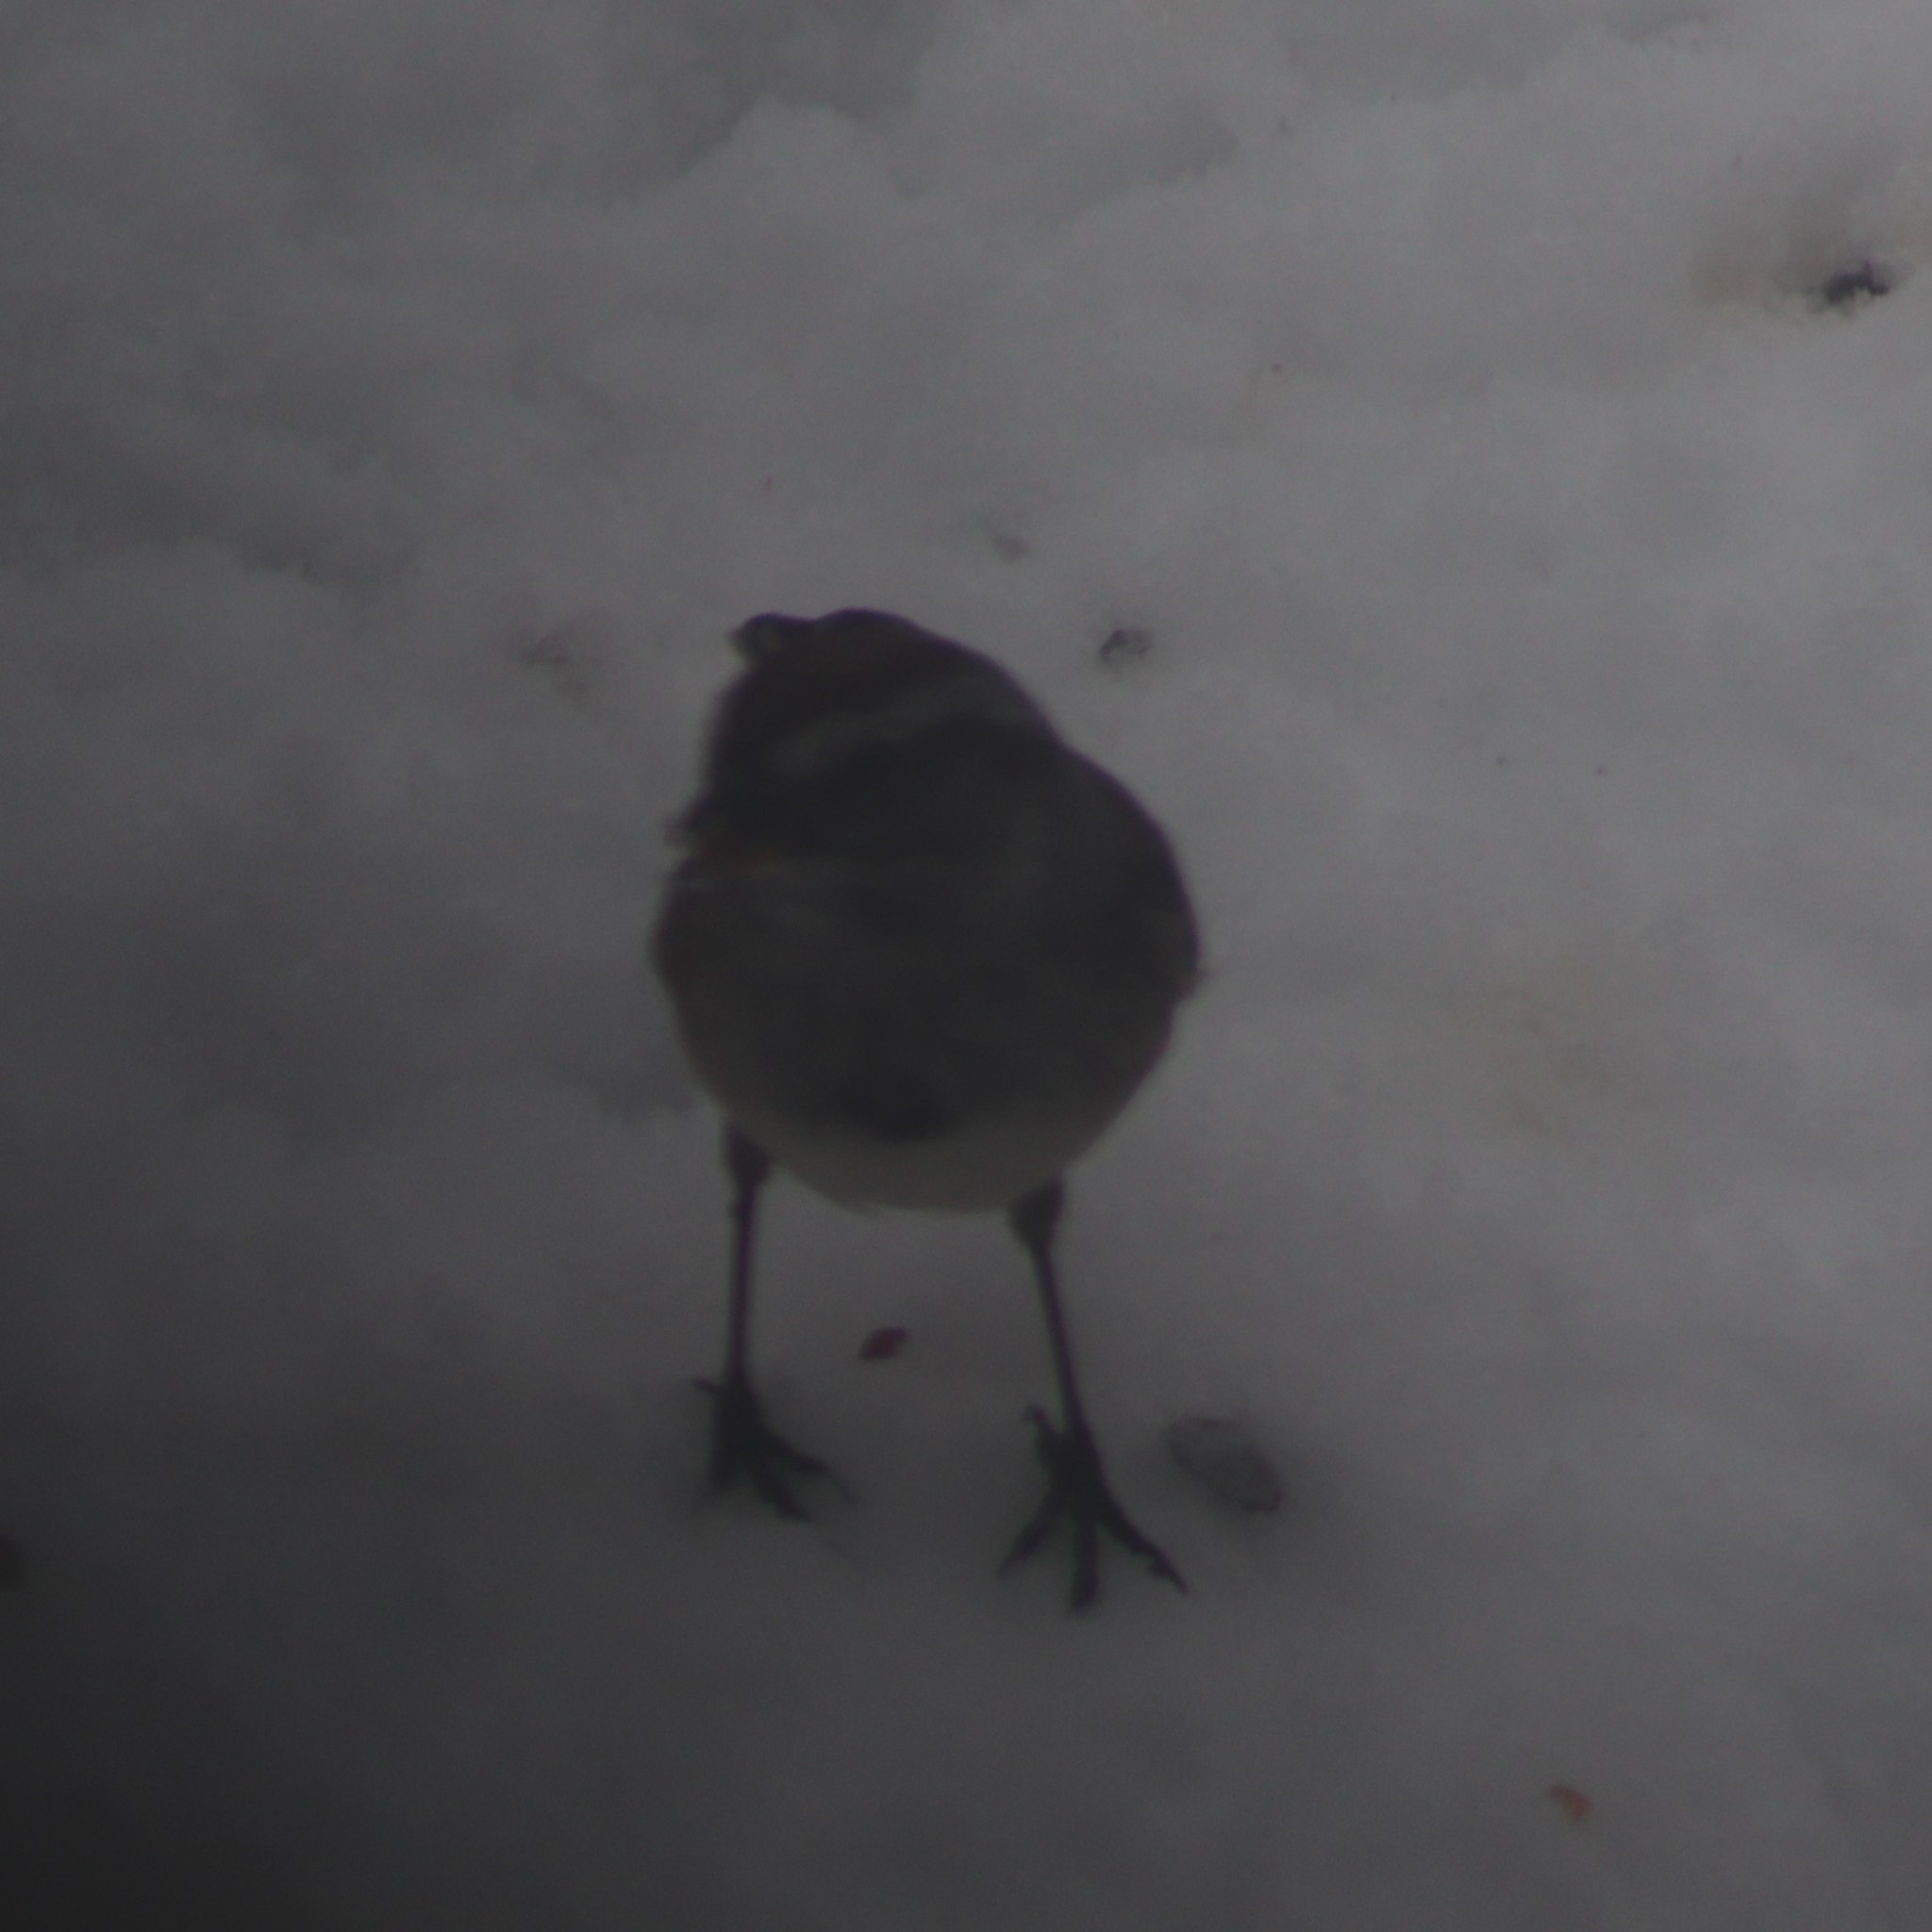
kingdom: Animalia
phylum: Chordata
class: Aves
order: Passeriformes
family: Passerellidae
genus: Spizelloides
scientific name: Spizelloides arborea
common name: American tree sparrow
